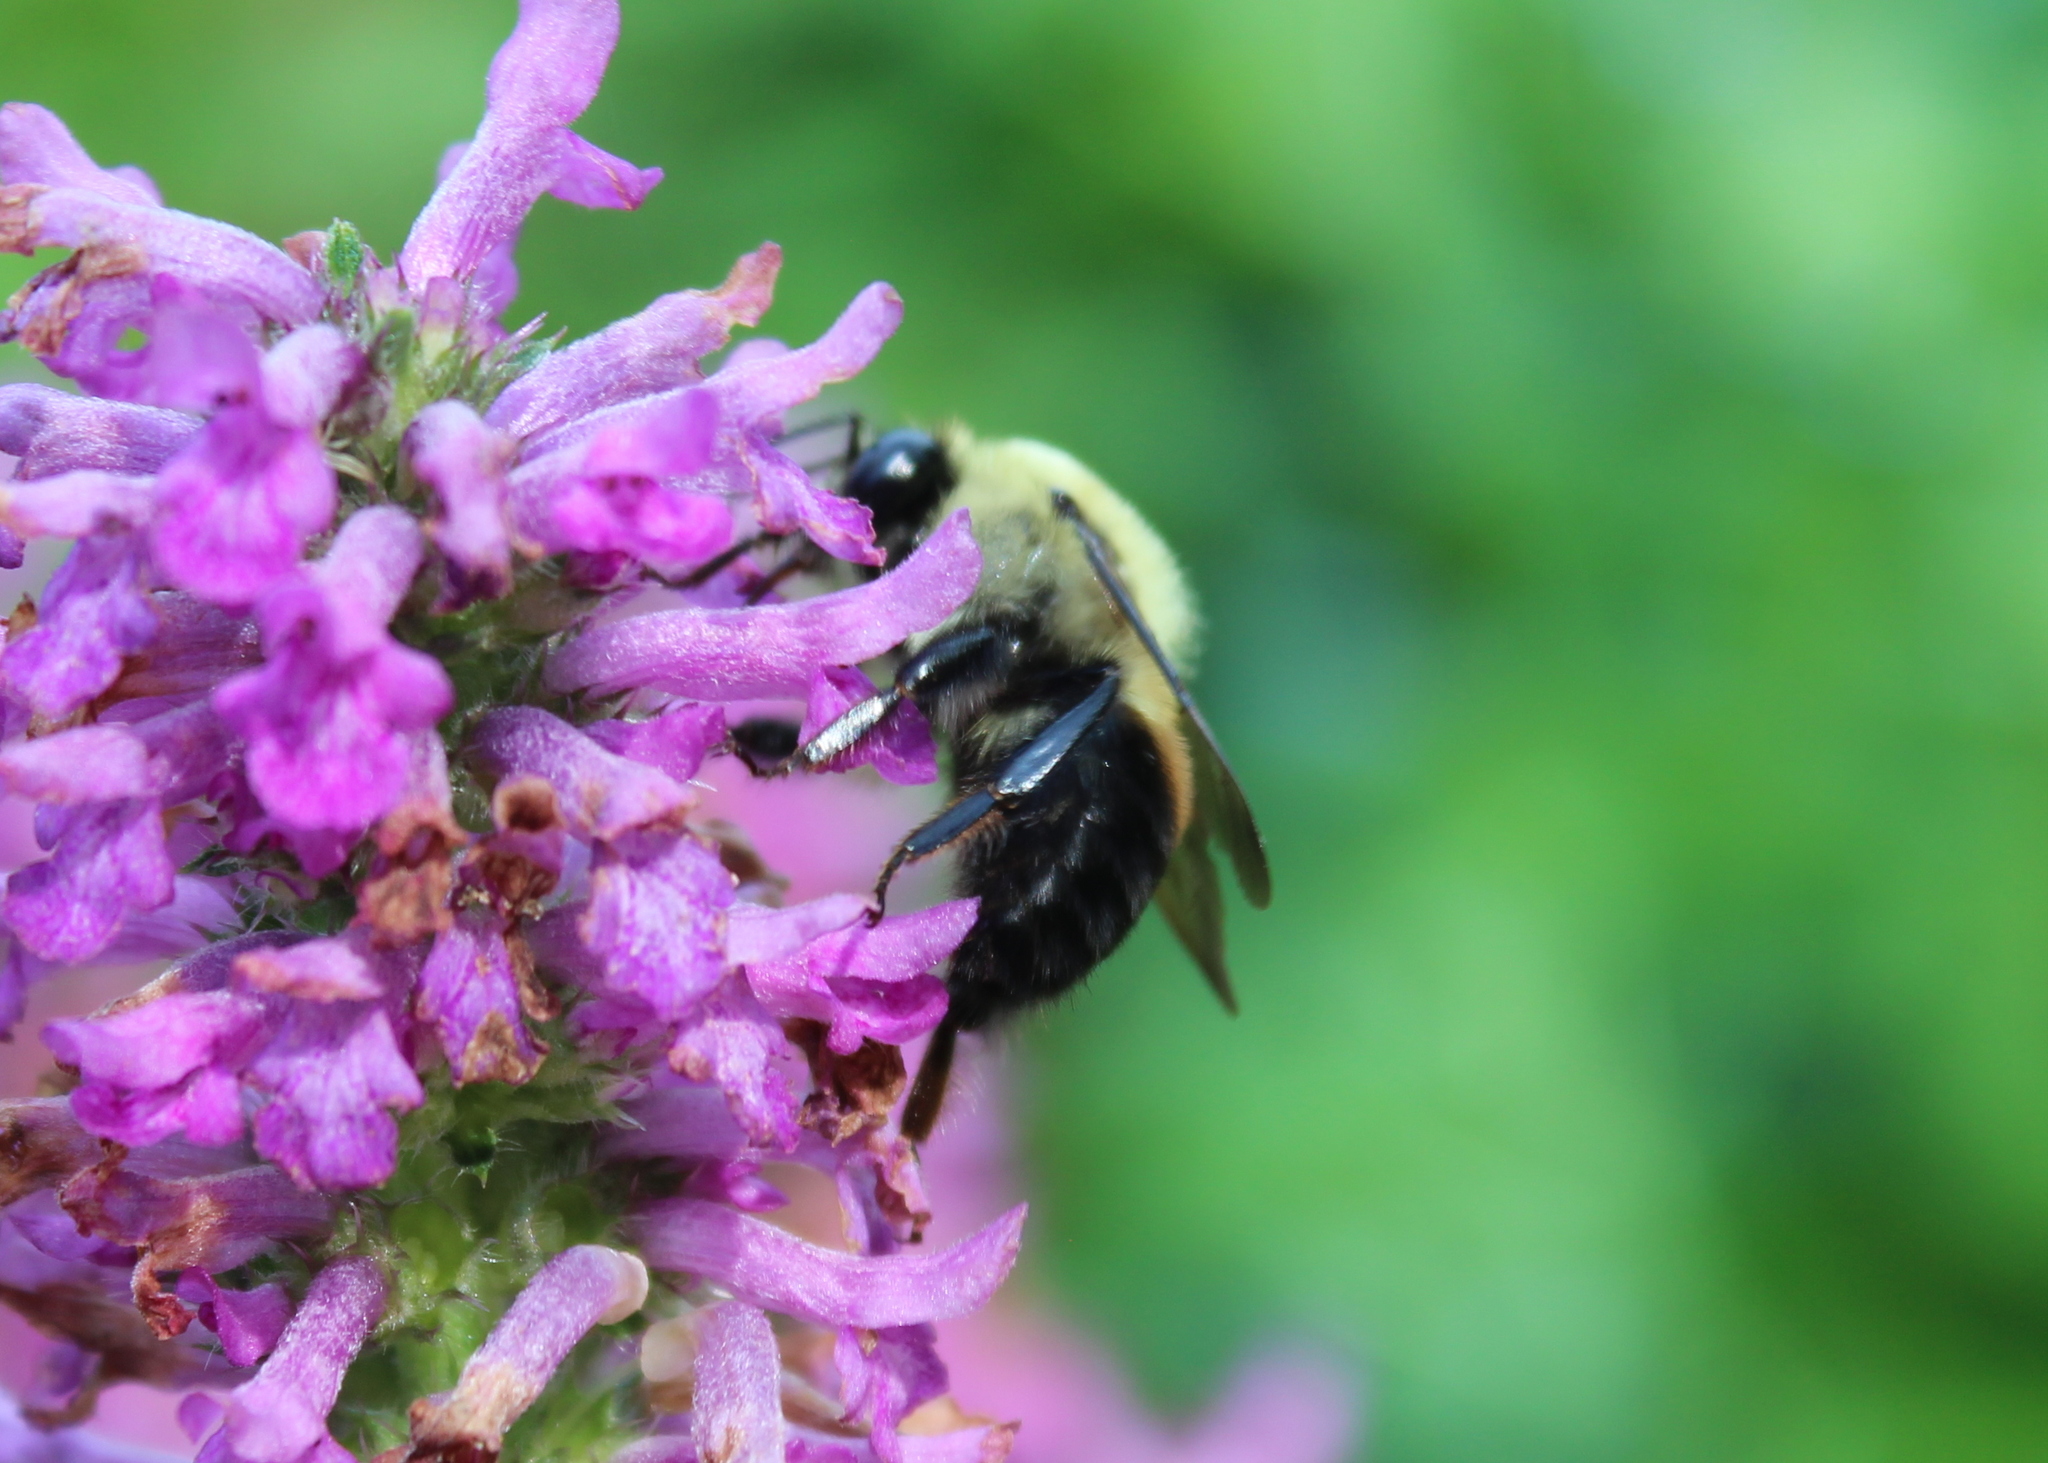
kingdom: Animalia
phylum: Arthropoda
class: Insecta
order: Hymenoptera
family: Apidae
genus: Bombus
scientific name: Bombus griseocollis
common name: Brown-belted bumble bee
